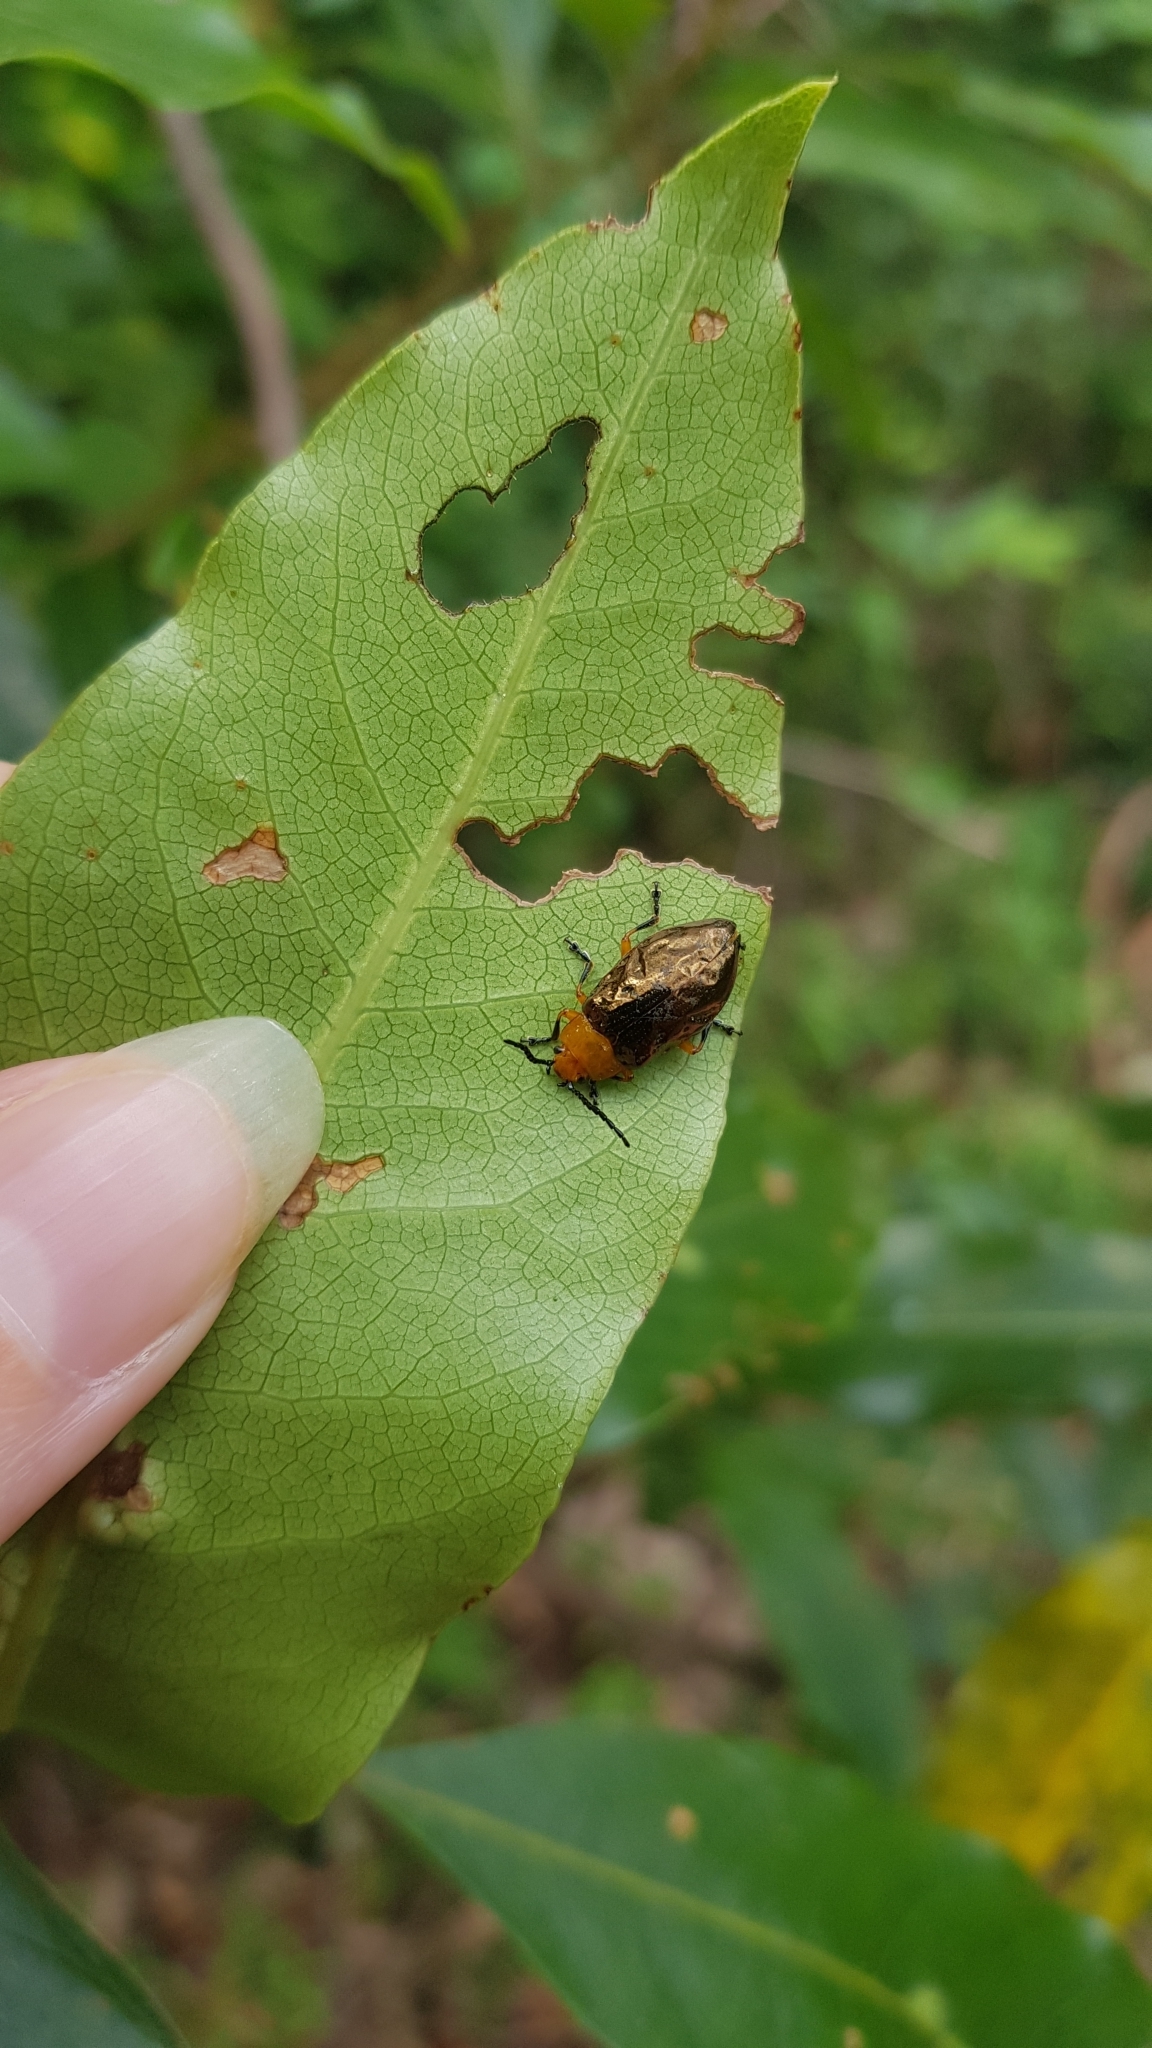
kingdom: Animalia
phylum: Arthropoda
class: Insecta
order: Coleoptera
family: Chrysomelidae
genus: Lamprolina
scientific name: Lamprolina
